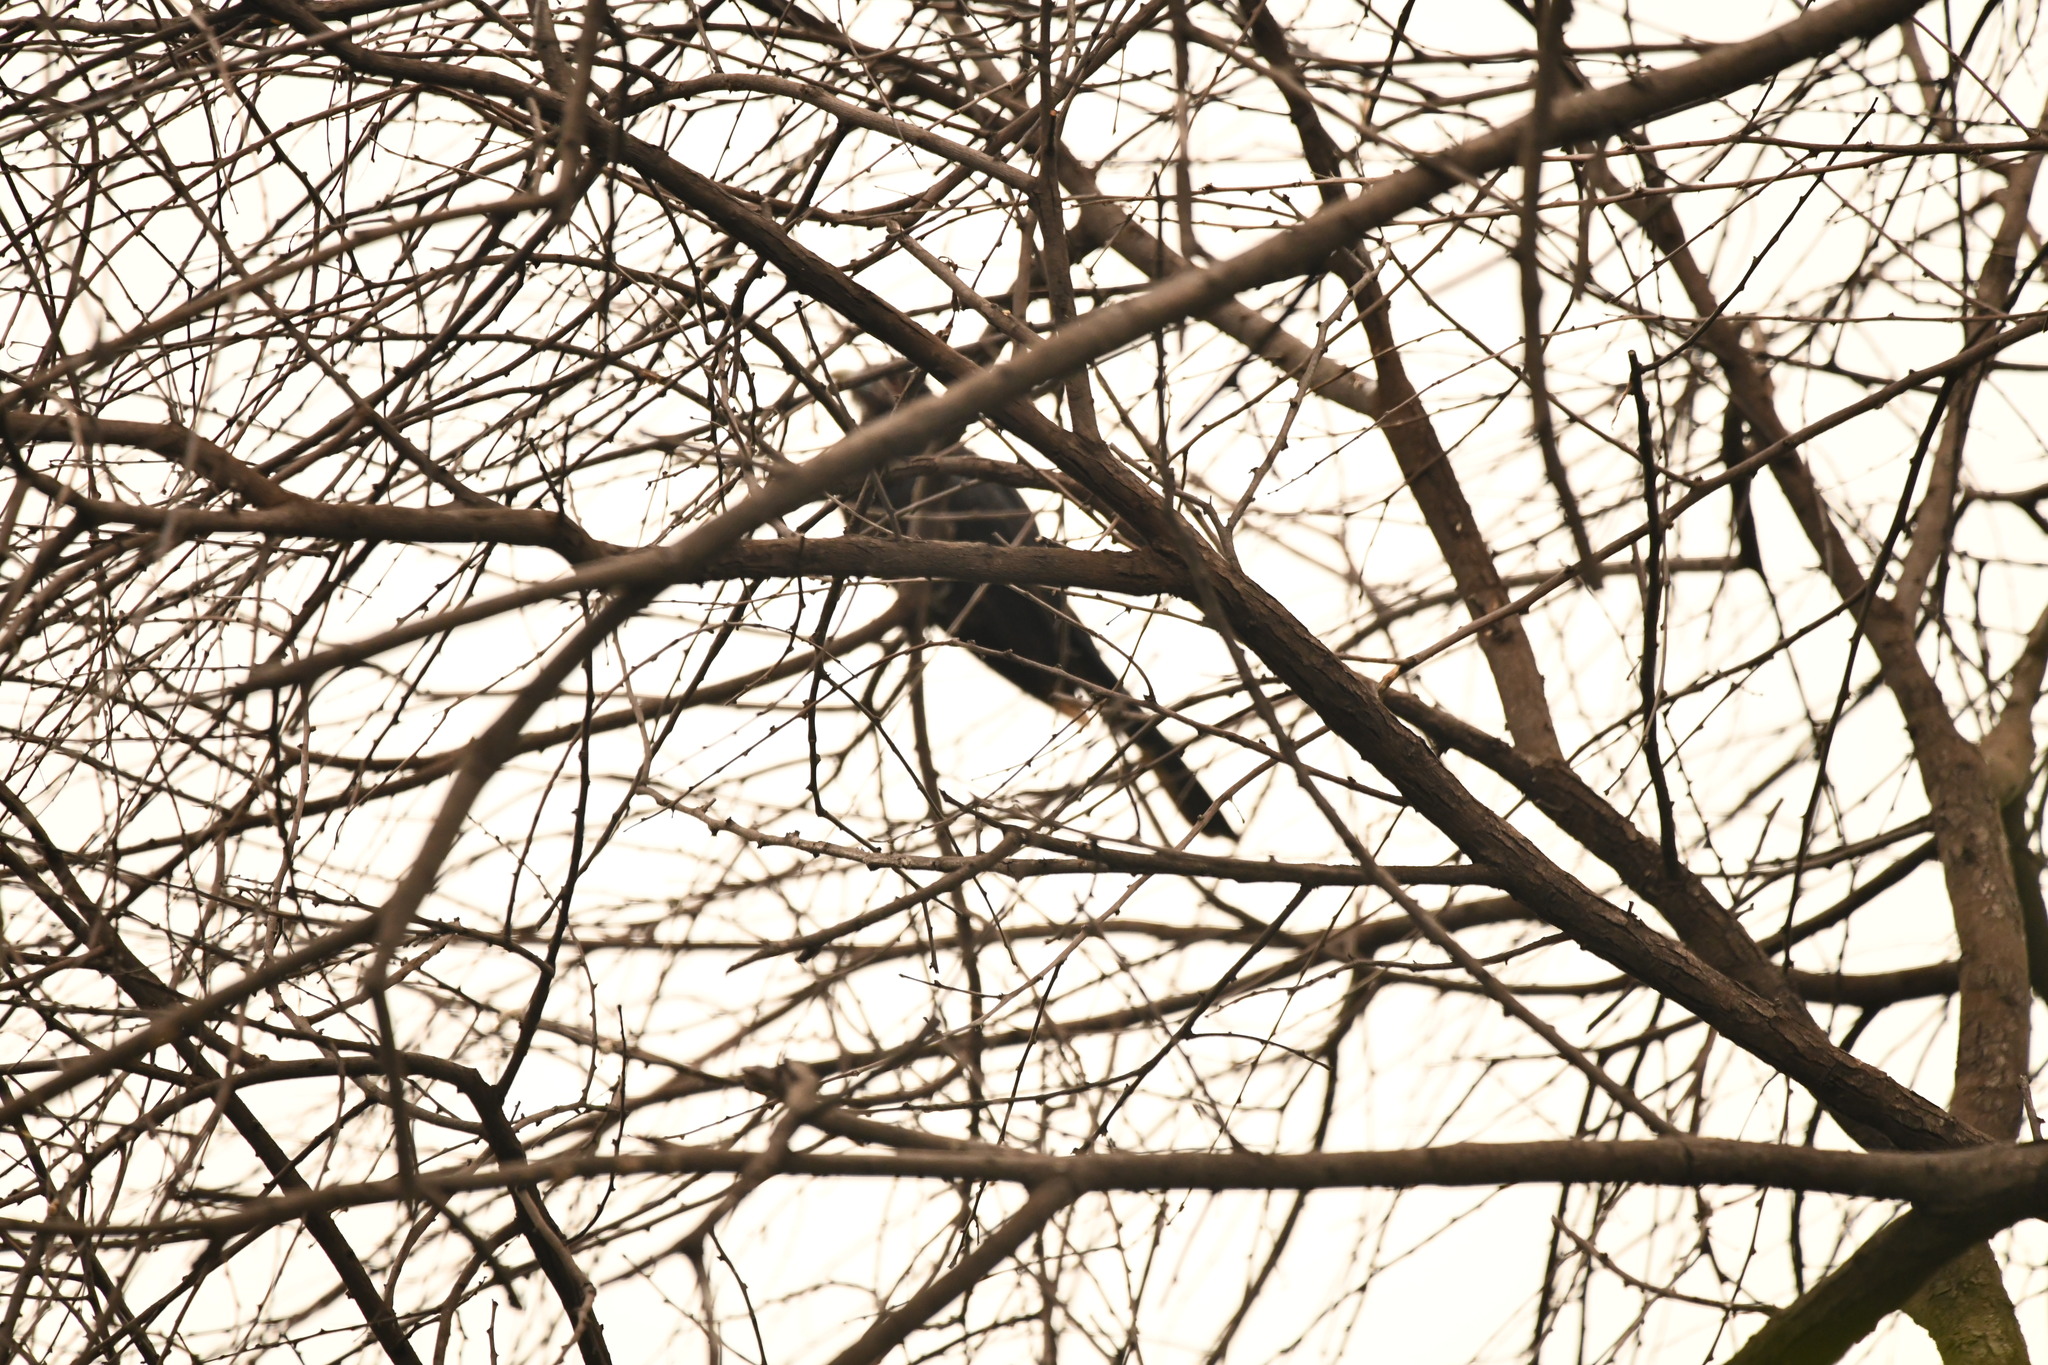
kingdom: Animalia
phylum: Chordata
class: Aves
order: Cuculiformes
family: Cuculidae
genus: Eudynamys
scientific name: Eudynamys scolopaceus
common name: Asian koel
